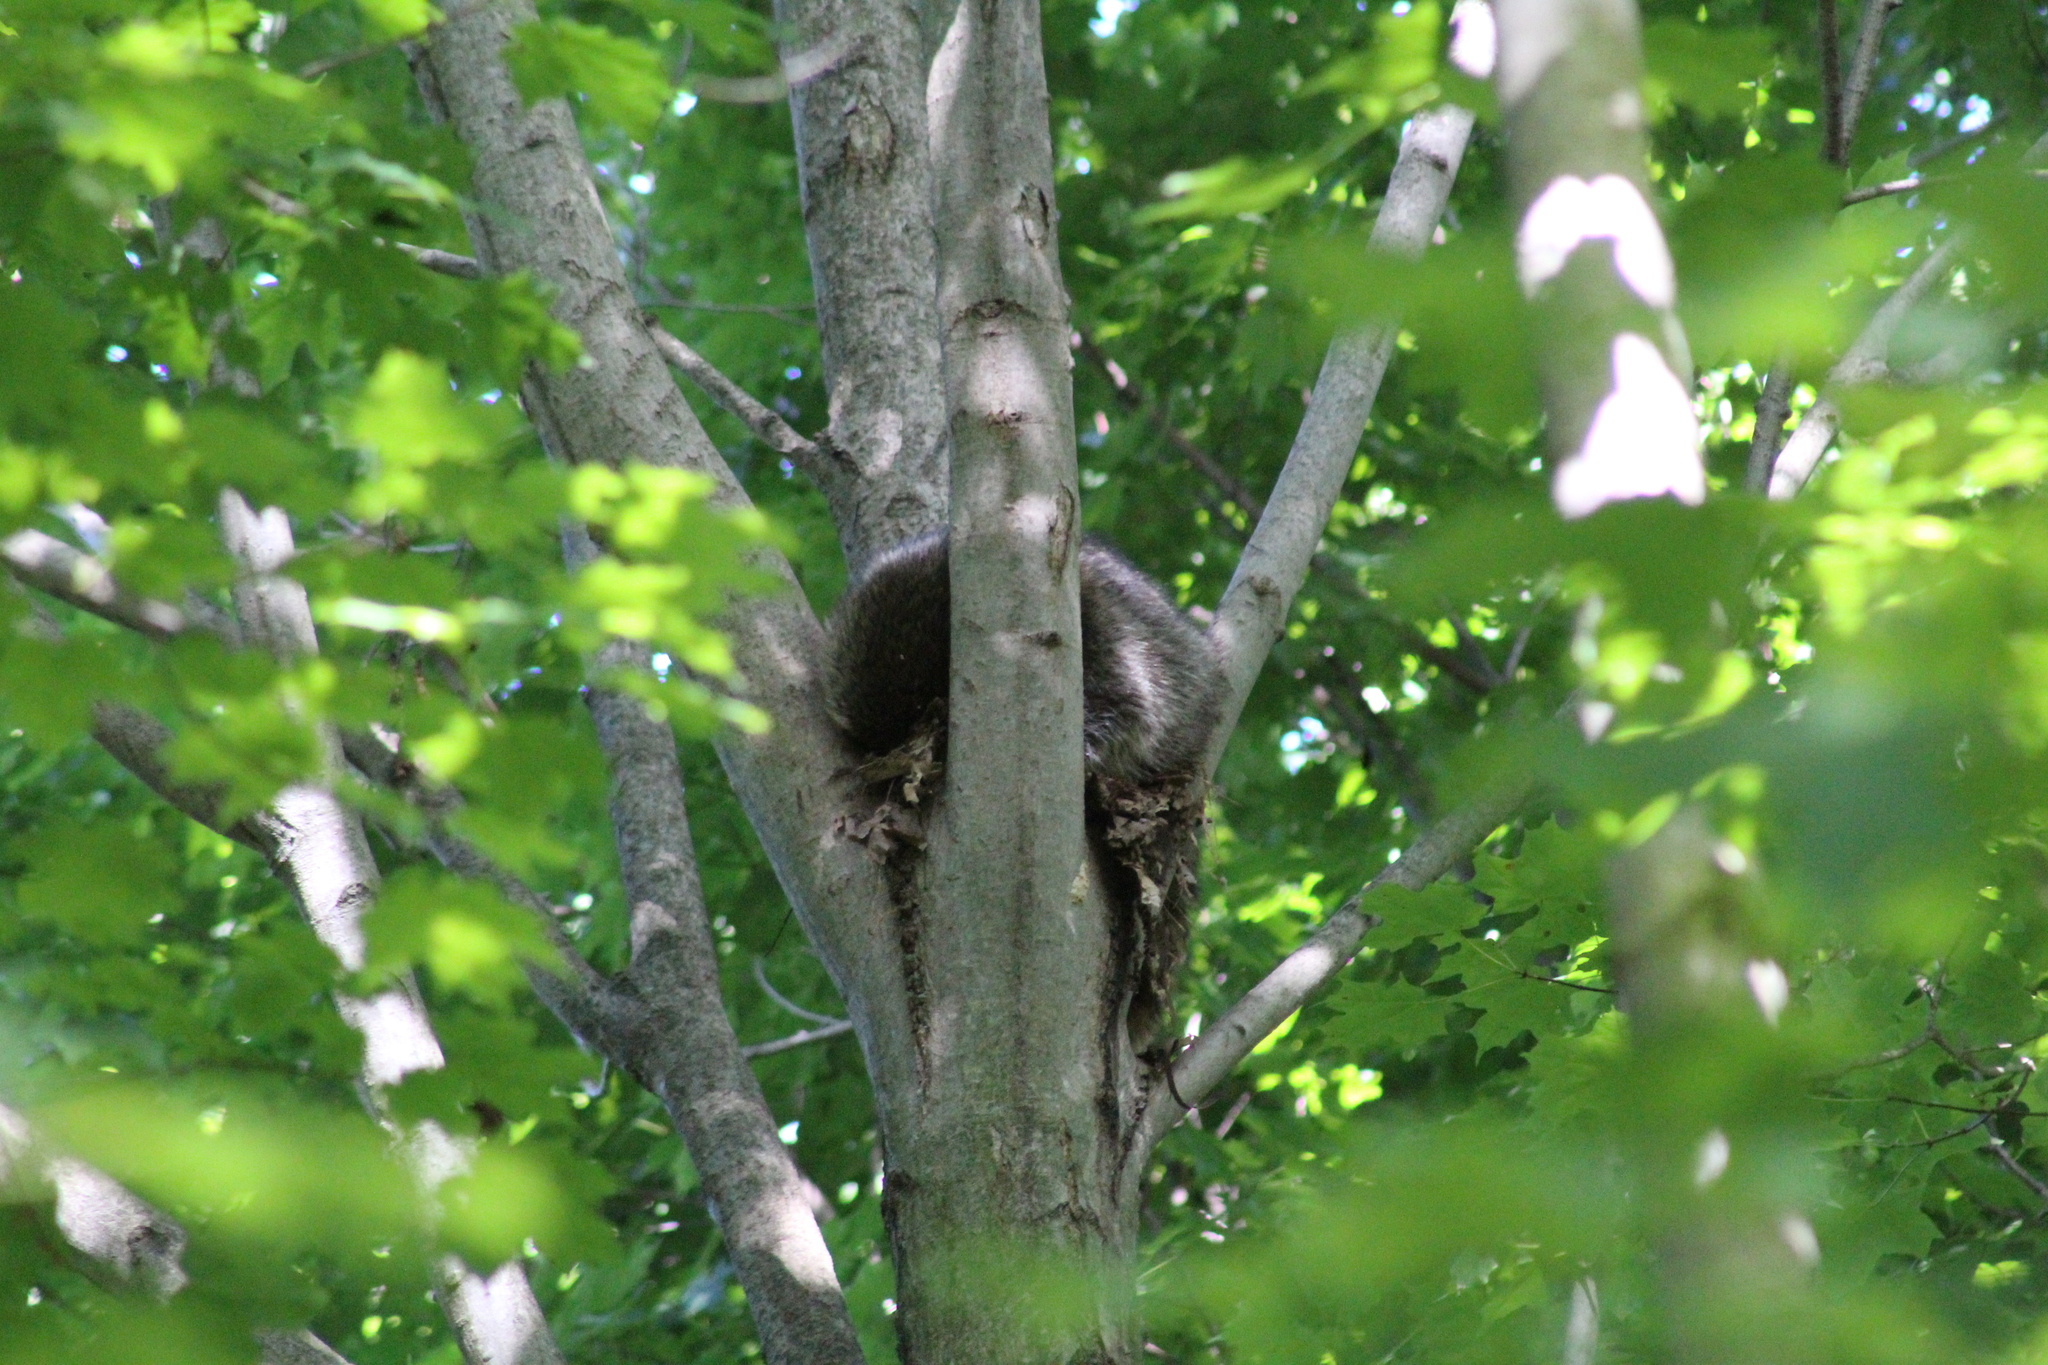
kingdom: Animalia
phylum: Chordata
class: Mammalia
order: Carnivora
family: Procyonidae
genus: Procyon
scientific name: Procyon lotor
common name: Raccoon
